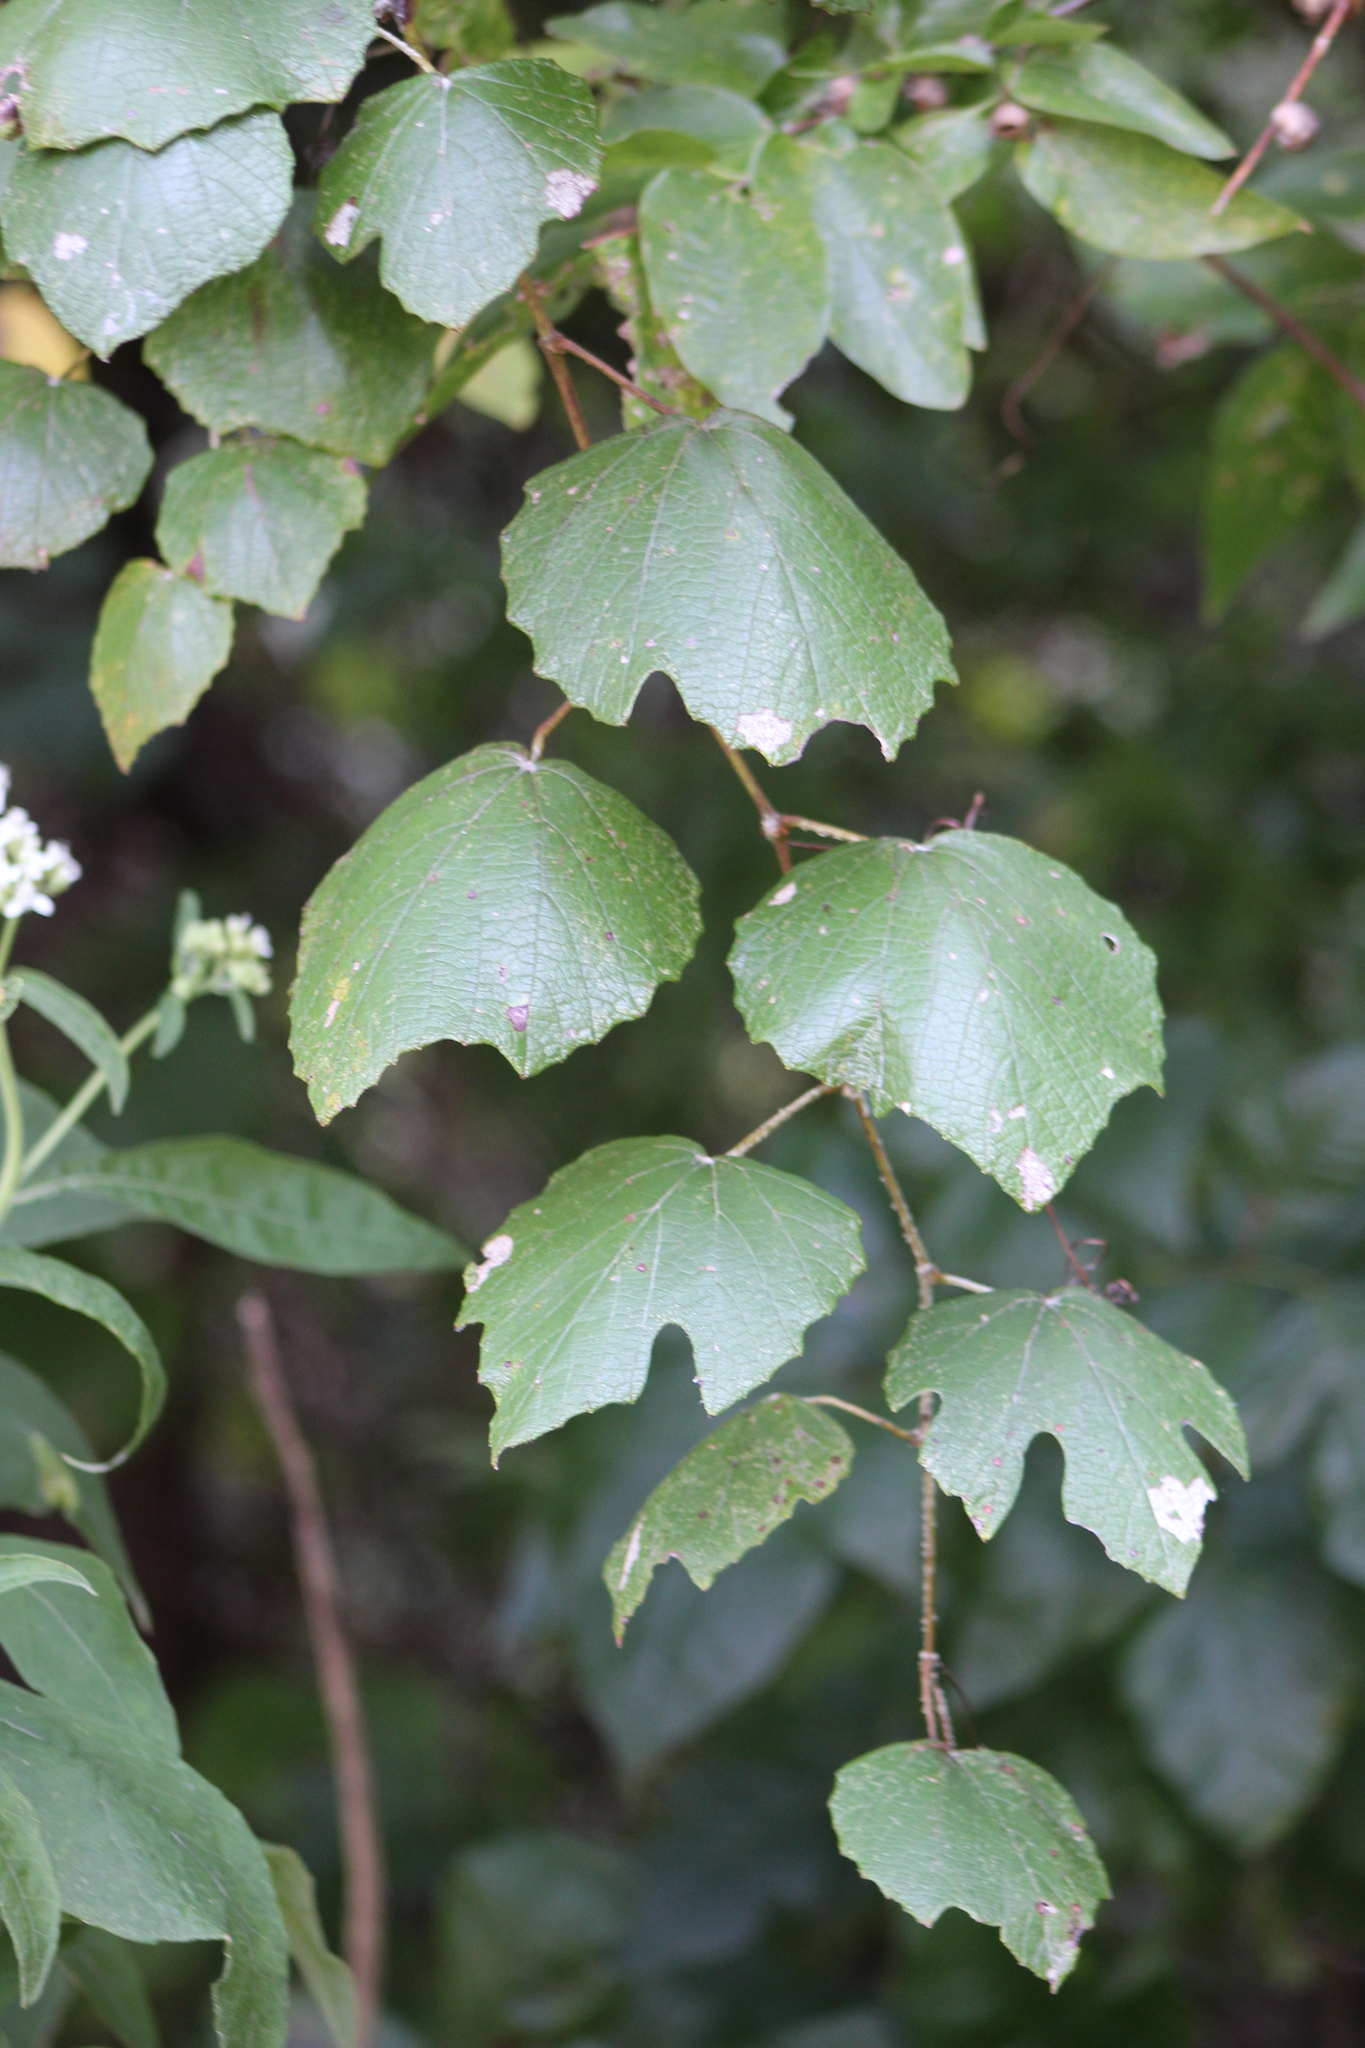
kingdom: Plantae
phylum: Tracheophyta
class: Magnoliopsida
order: Vitales
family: Vitaceae
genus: Vitis
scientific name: Vitis mustangensis
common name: Mustang grape
